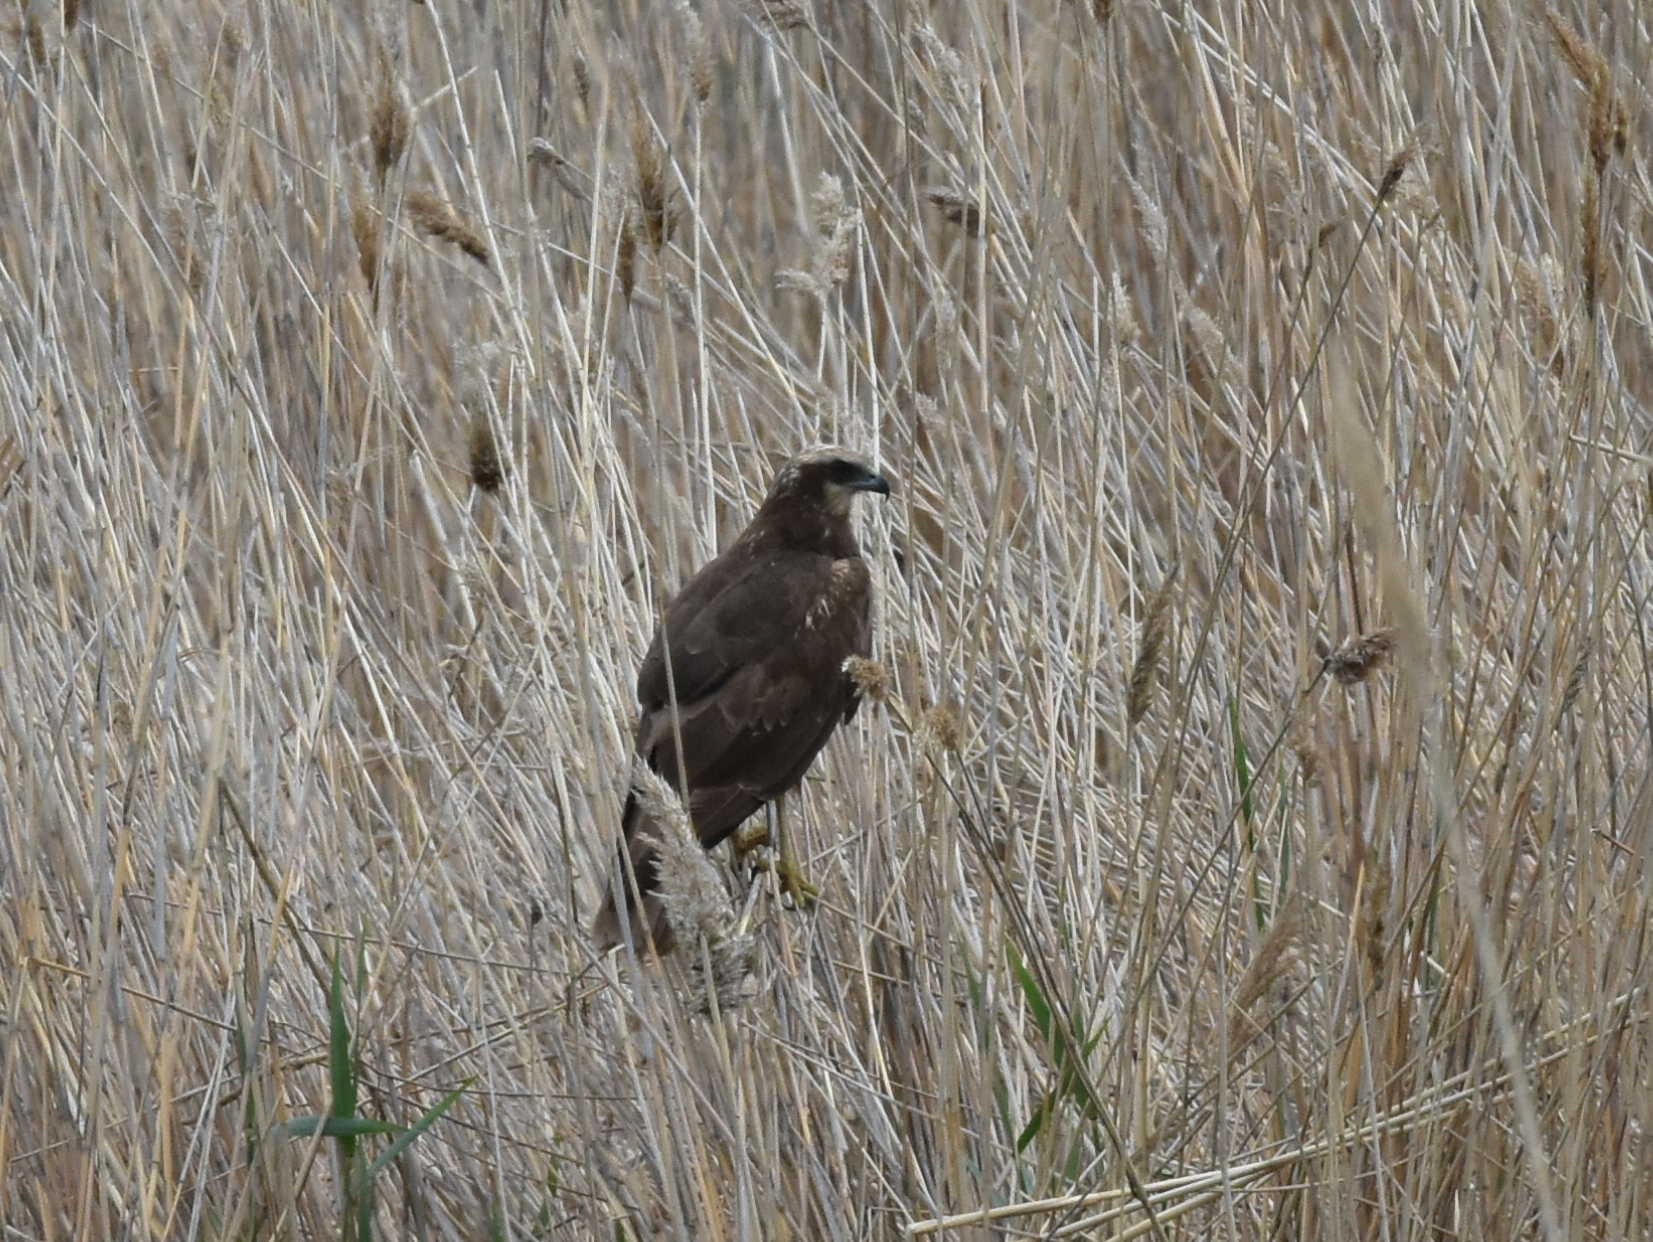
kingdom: Animalia
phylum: Chordata
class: Aves
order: Accipitriformes
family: Accipitridae
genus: Circus
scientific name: Circus aeruginosus
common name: Western marsh harrier
